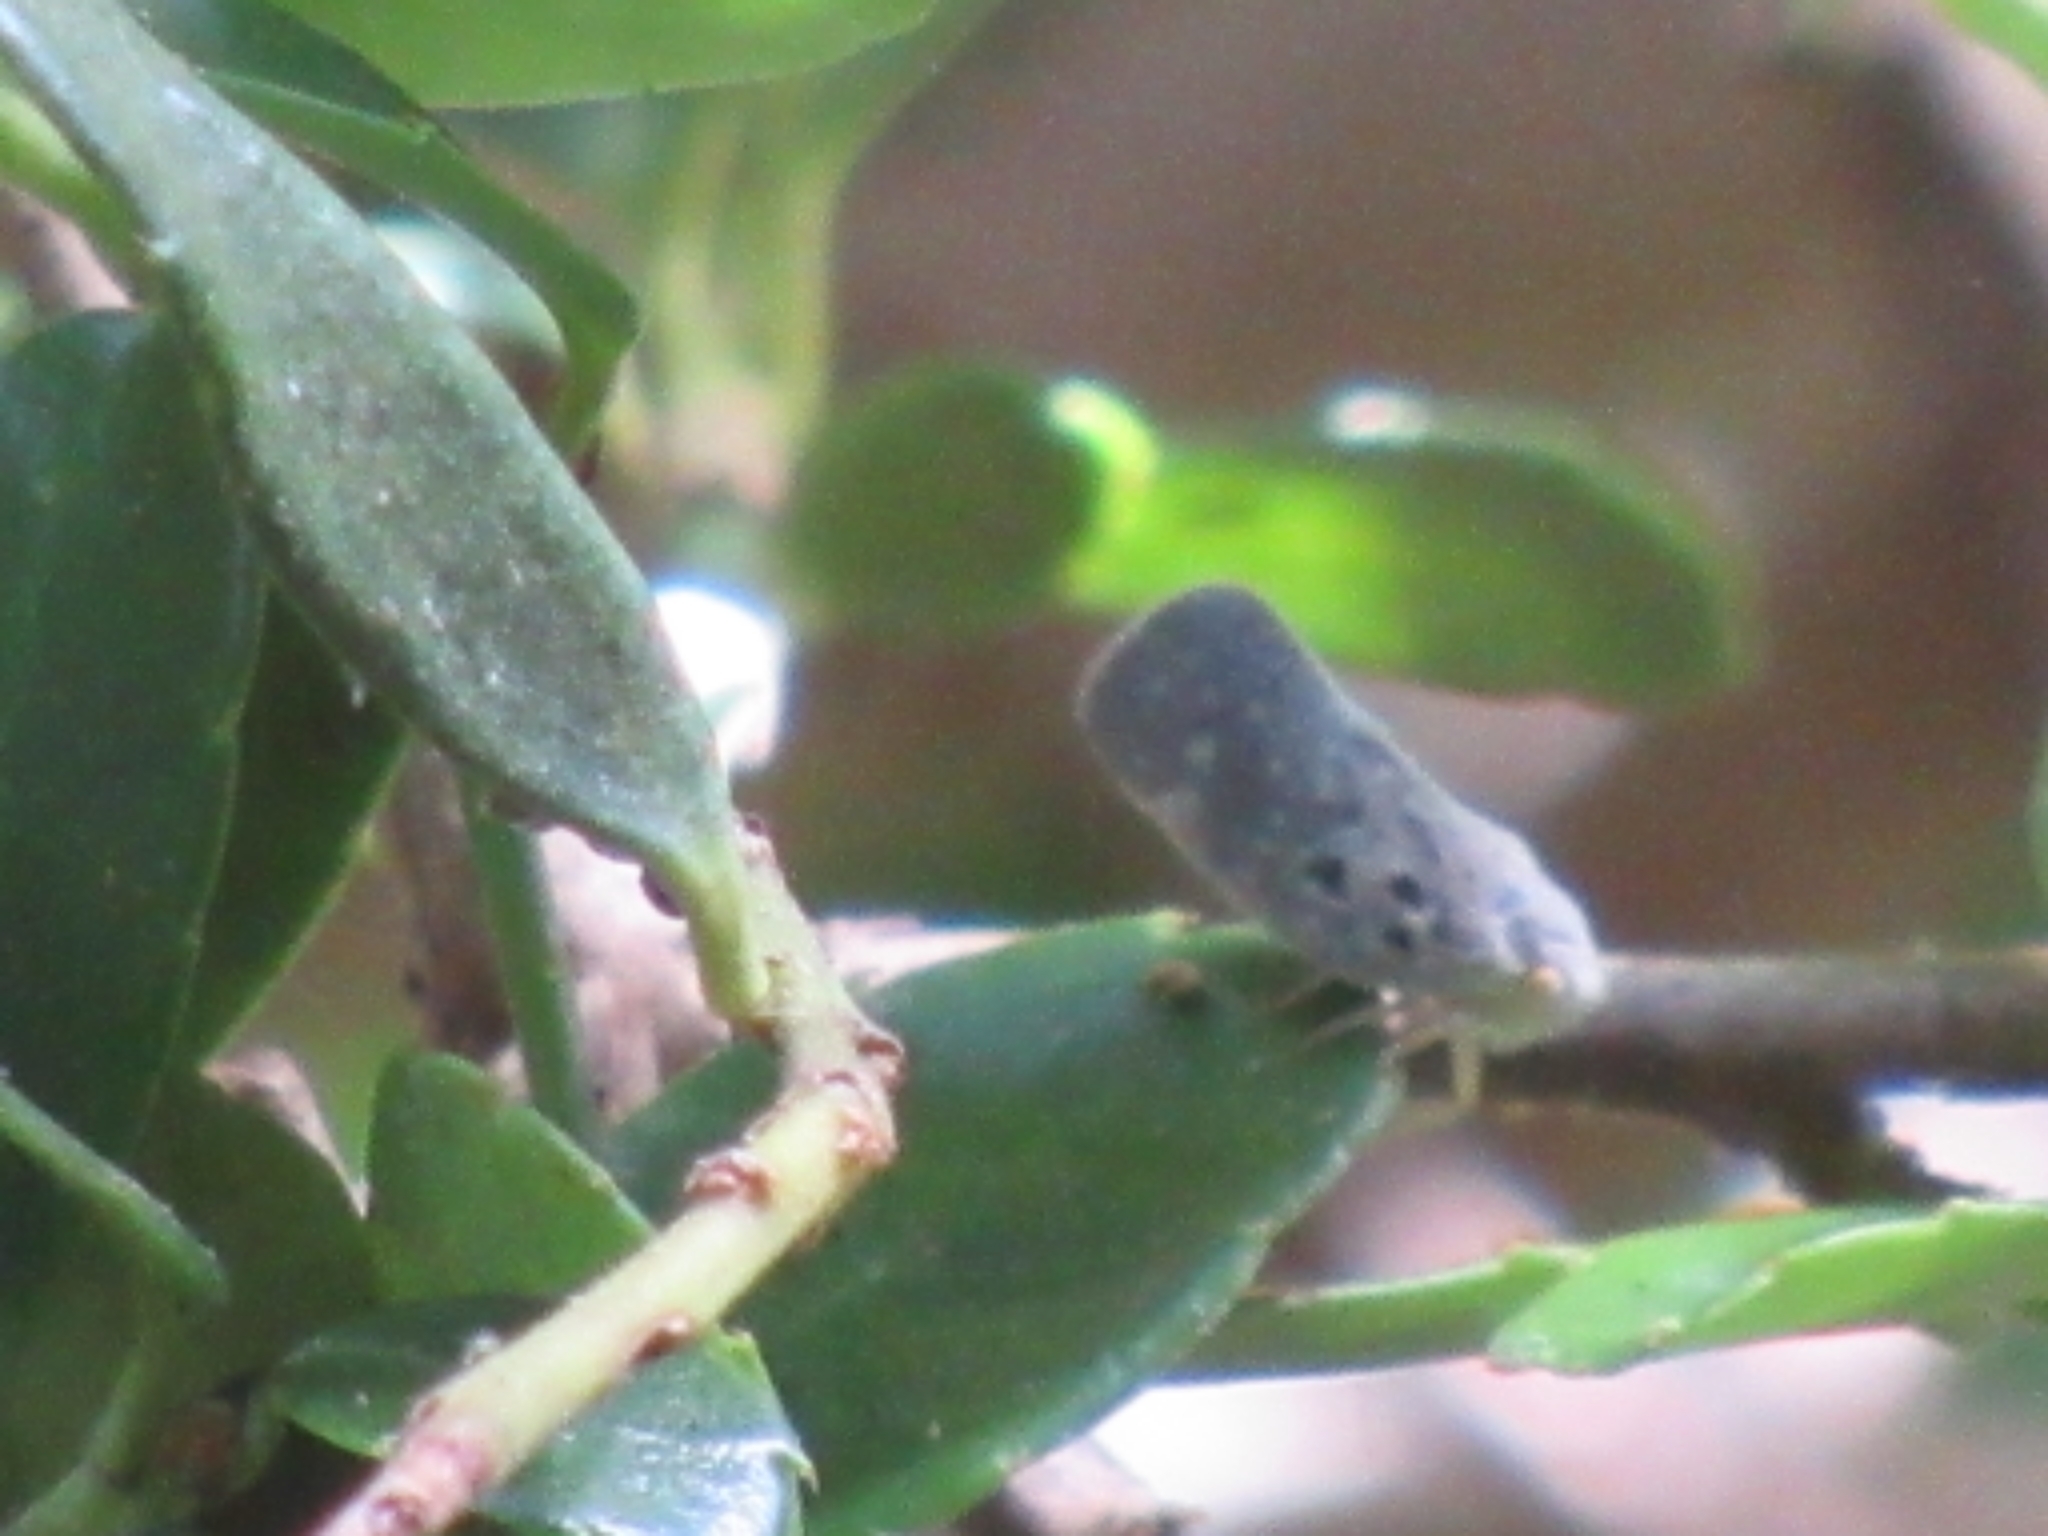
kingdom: Animalia
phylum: Arthropoda
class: Insecta
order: Hemiptera
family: Flatidae
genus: Metcalfa
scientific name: Metcalfa pruinosa
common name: Citrus flatid planthopper
